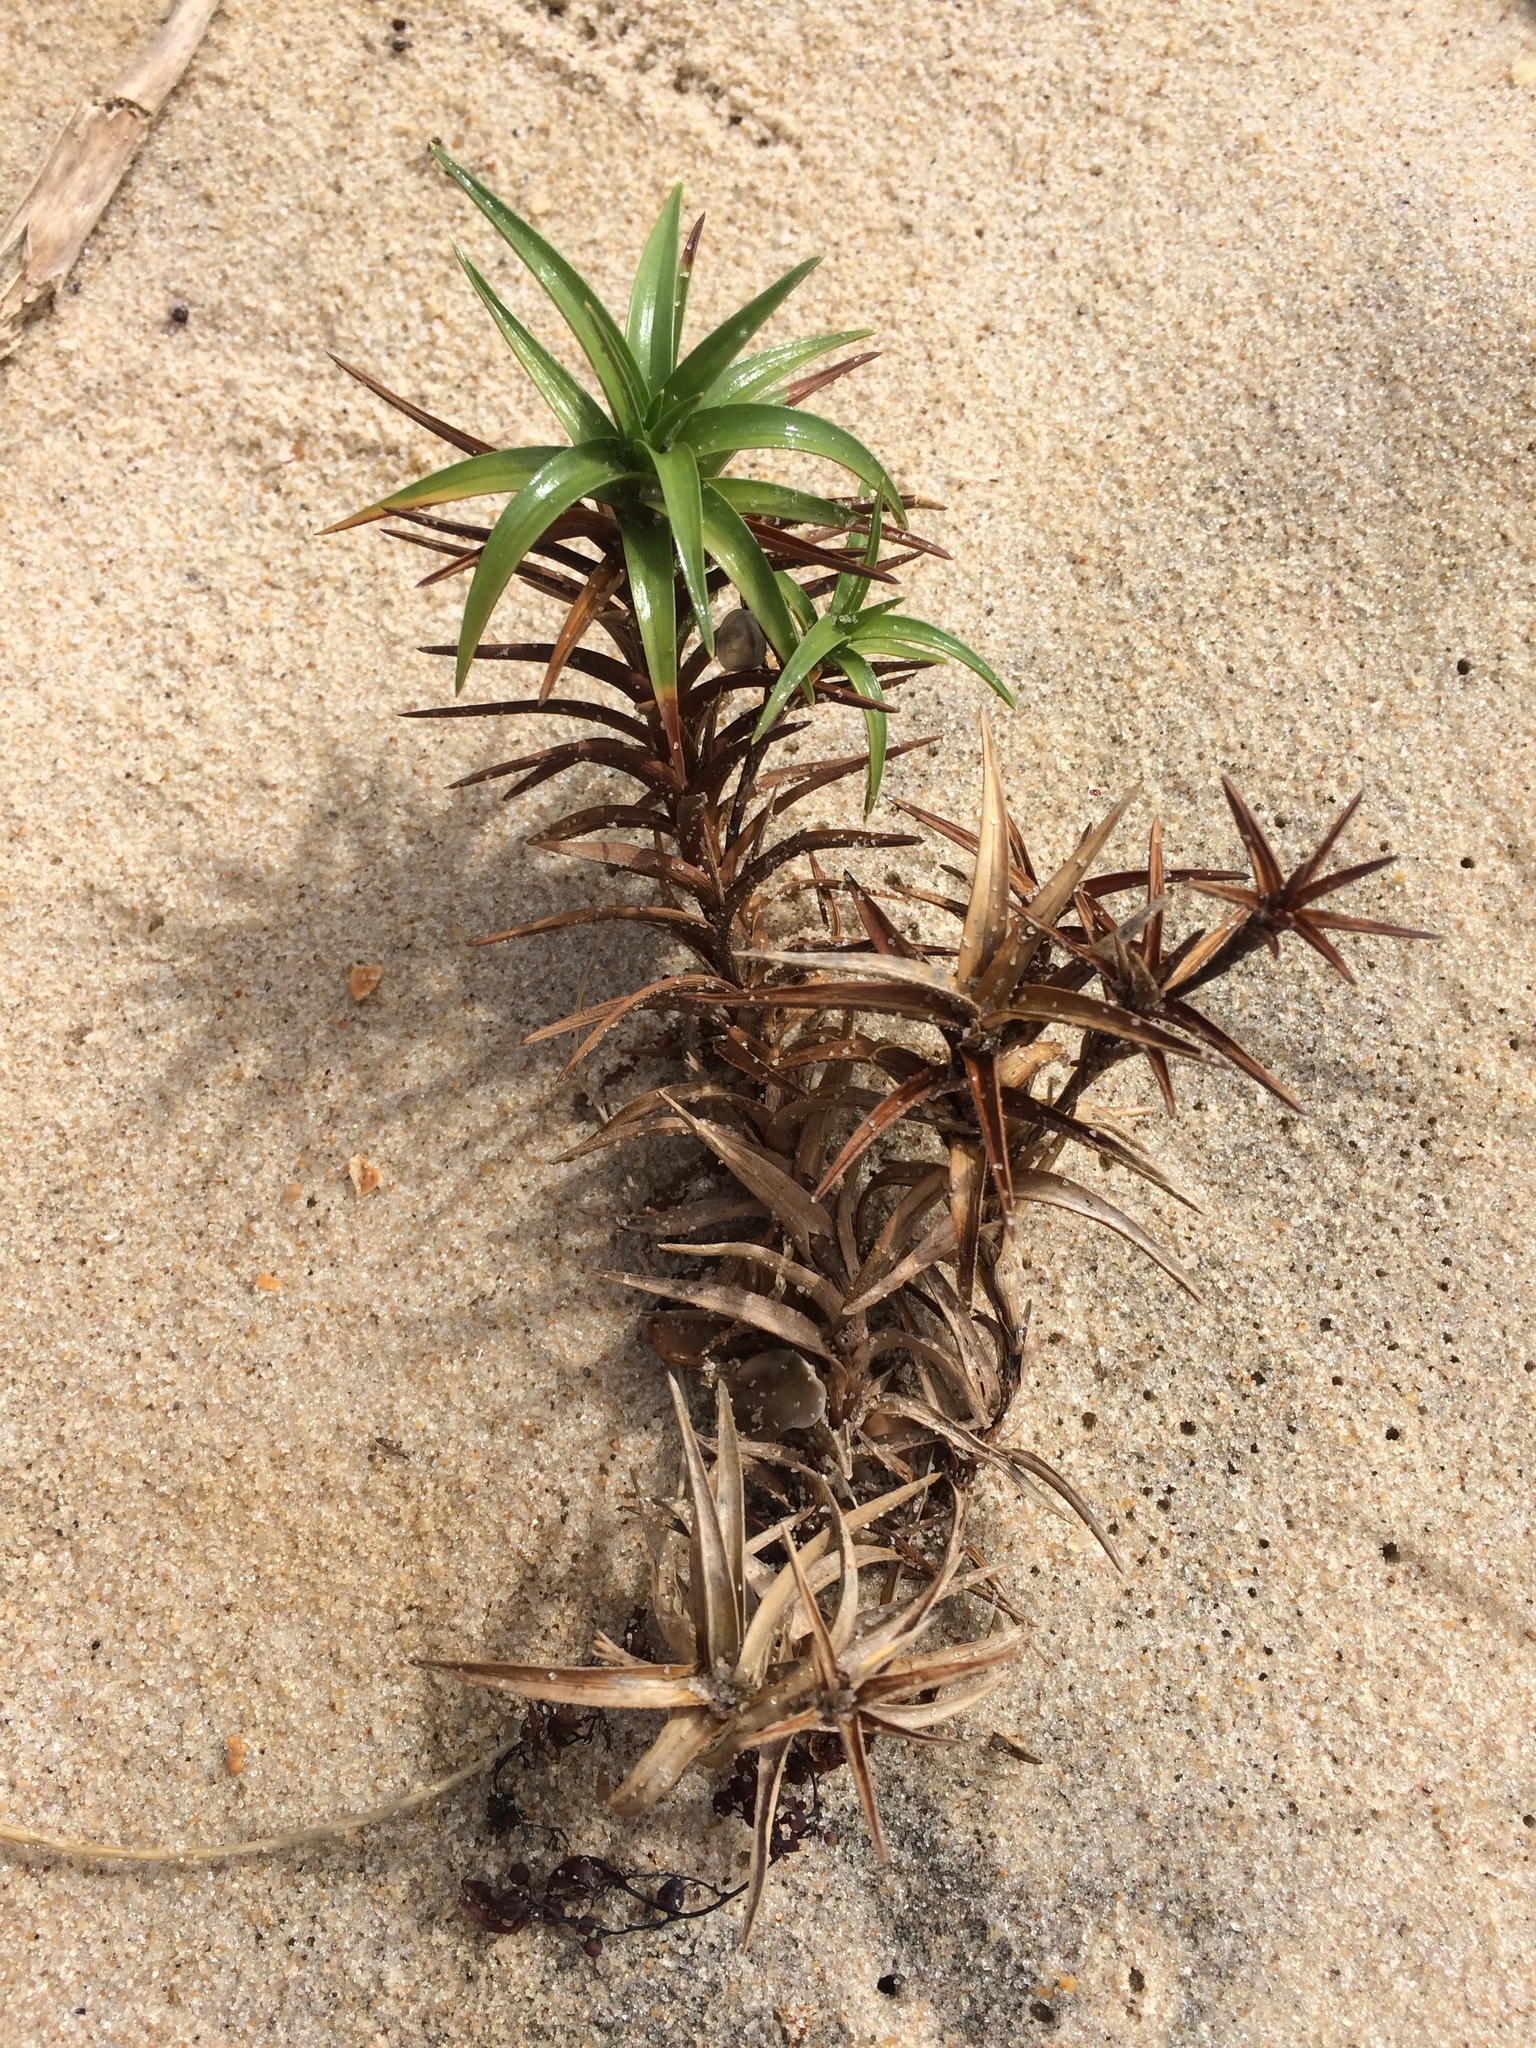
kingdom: Plantae
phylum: Tracheophyta
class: Liliopsida
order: Poales
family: Cyperaceae
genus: Cyperus
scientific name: Cyperus pedunculatus
